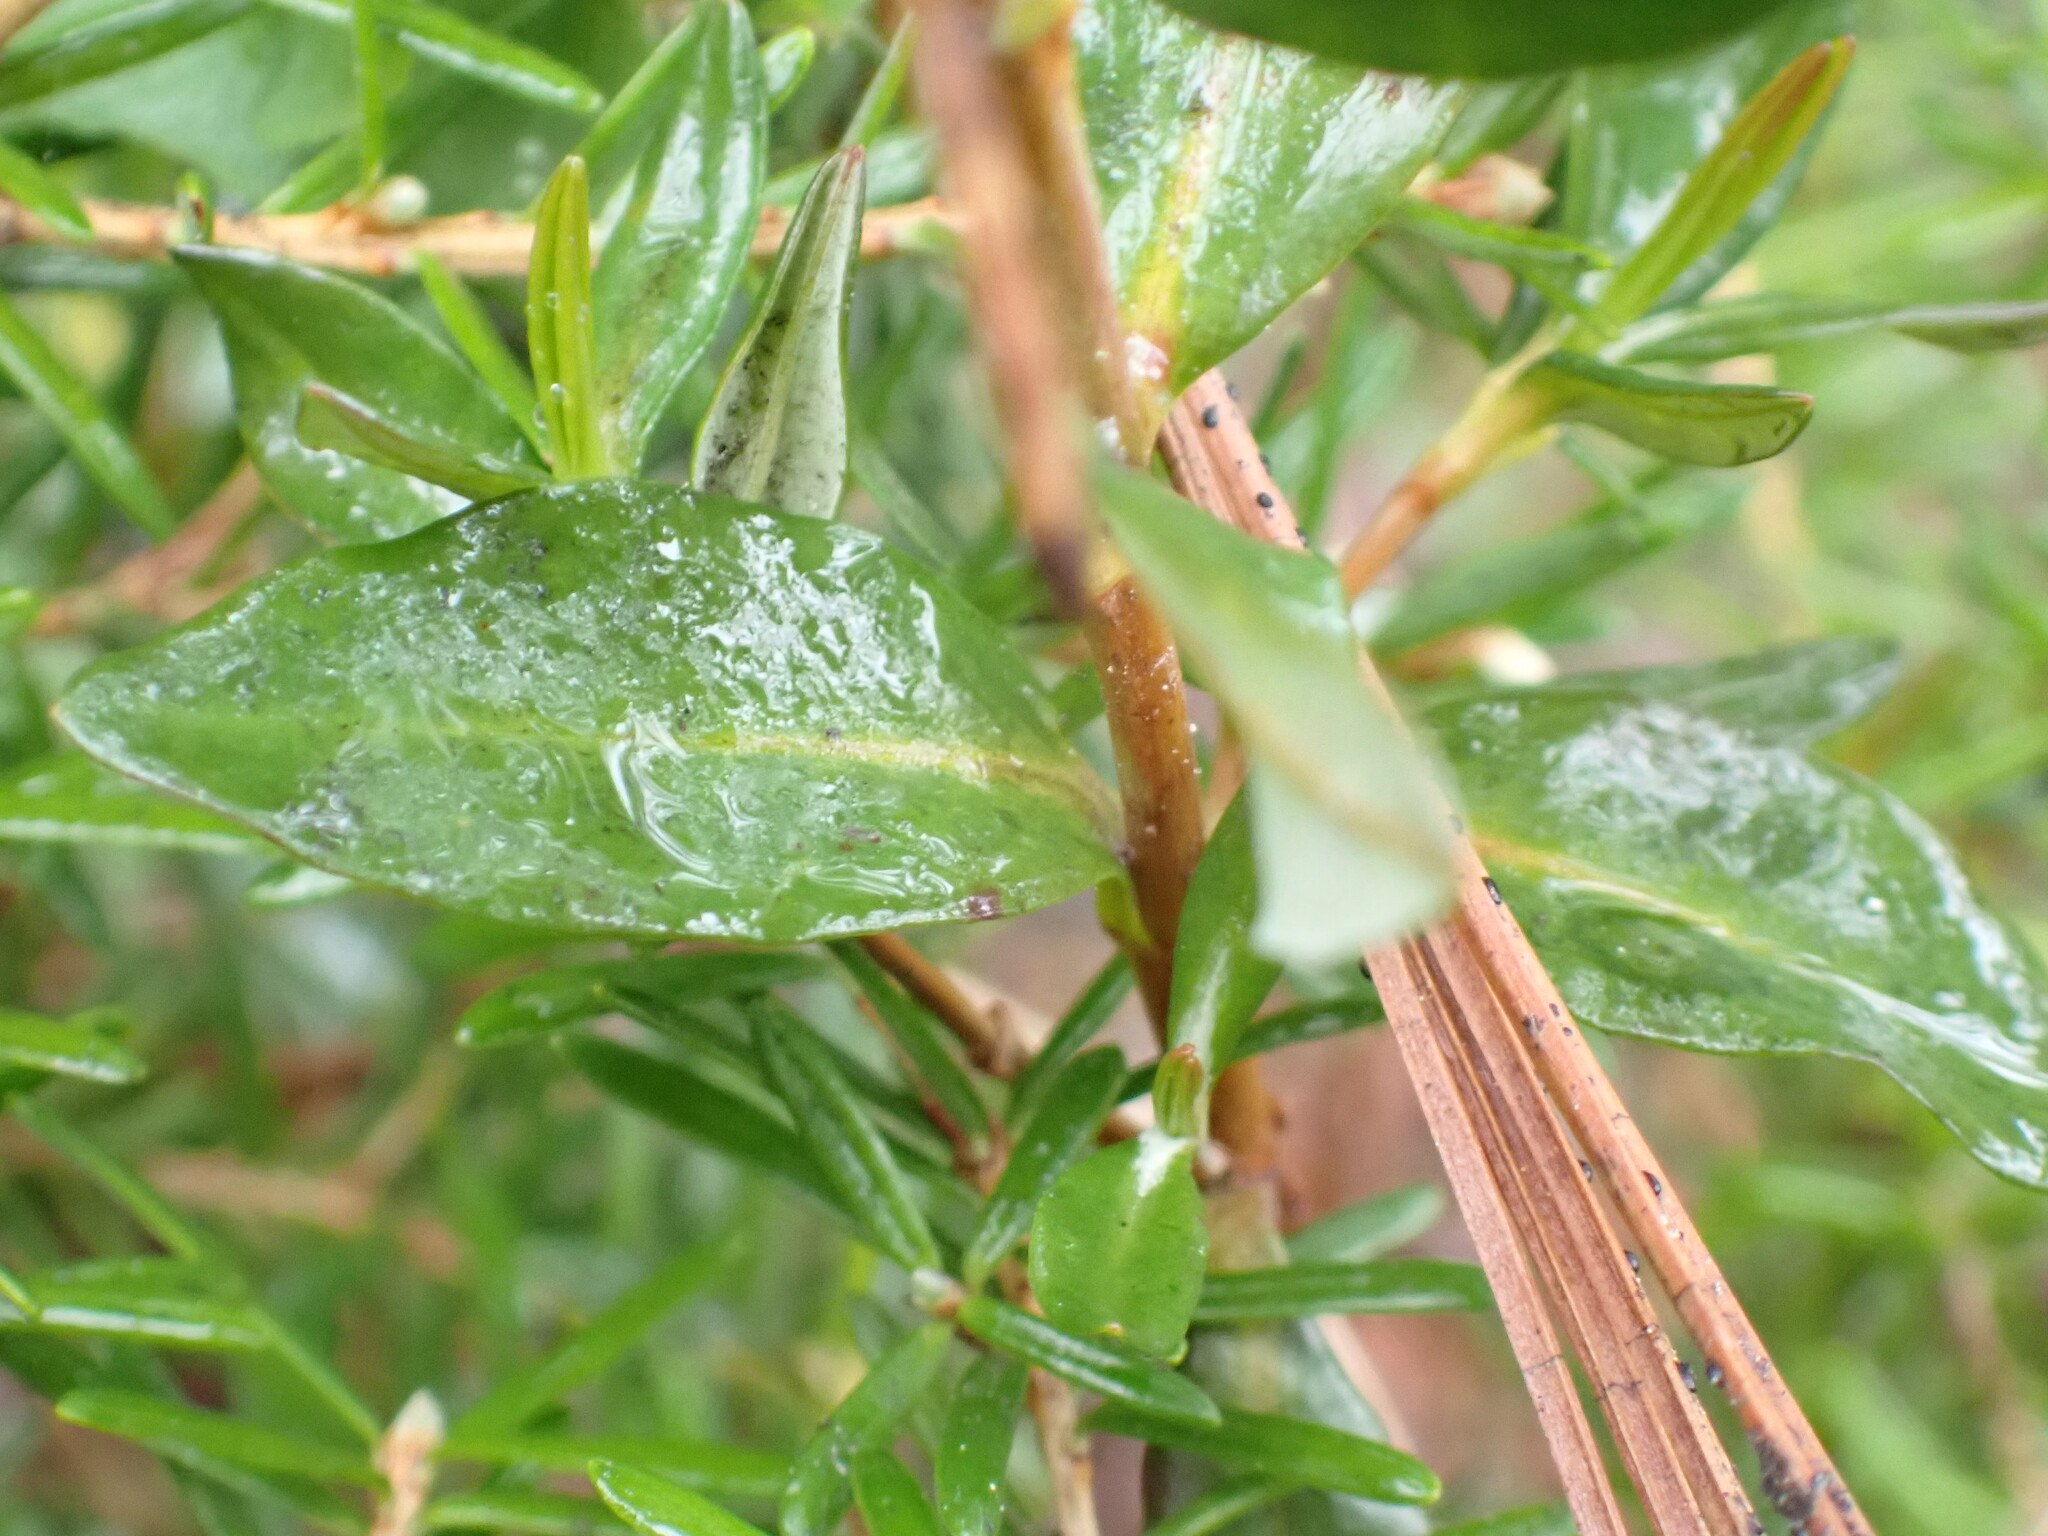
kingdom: Plantae
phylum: Tracheophyta
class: Magnoliopsida
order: Ericales
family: Ericaceae
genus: Kalmia
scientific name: Kalmia microphylla
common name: Alpine bog laurel
